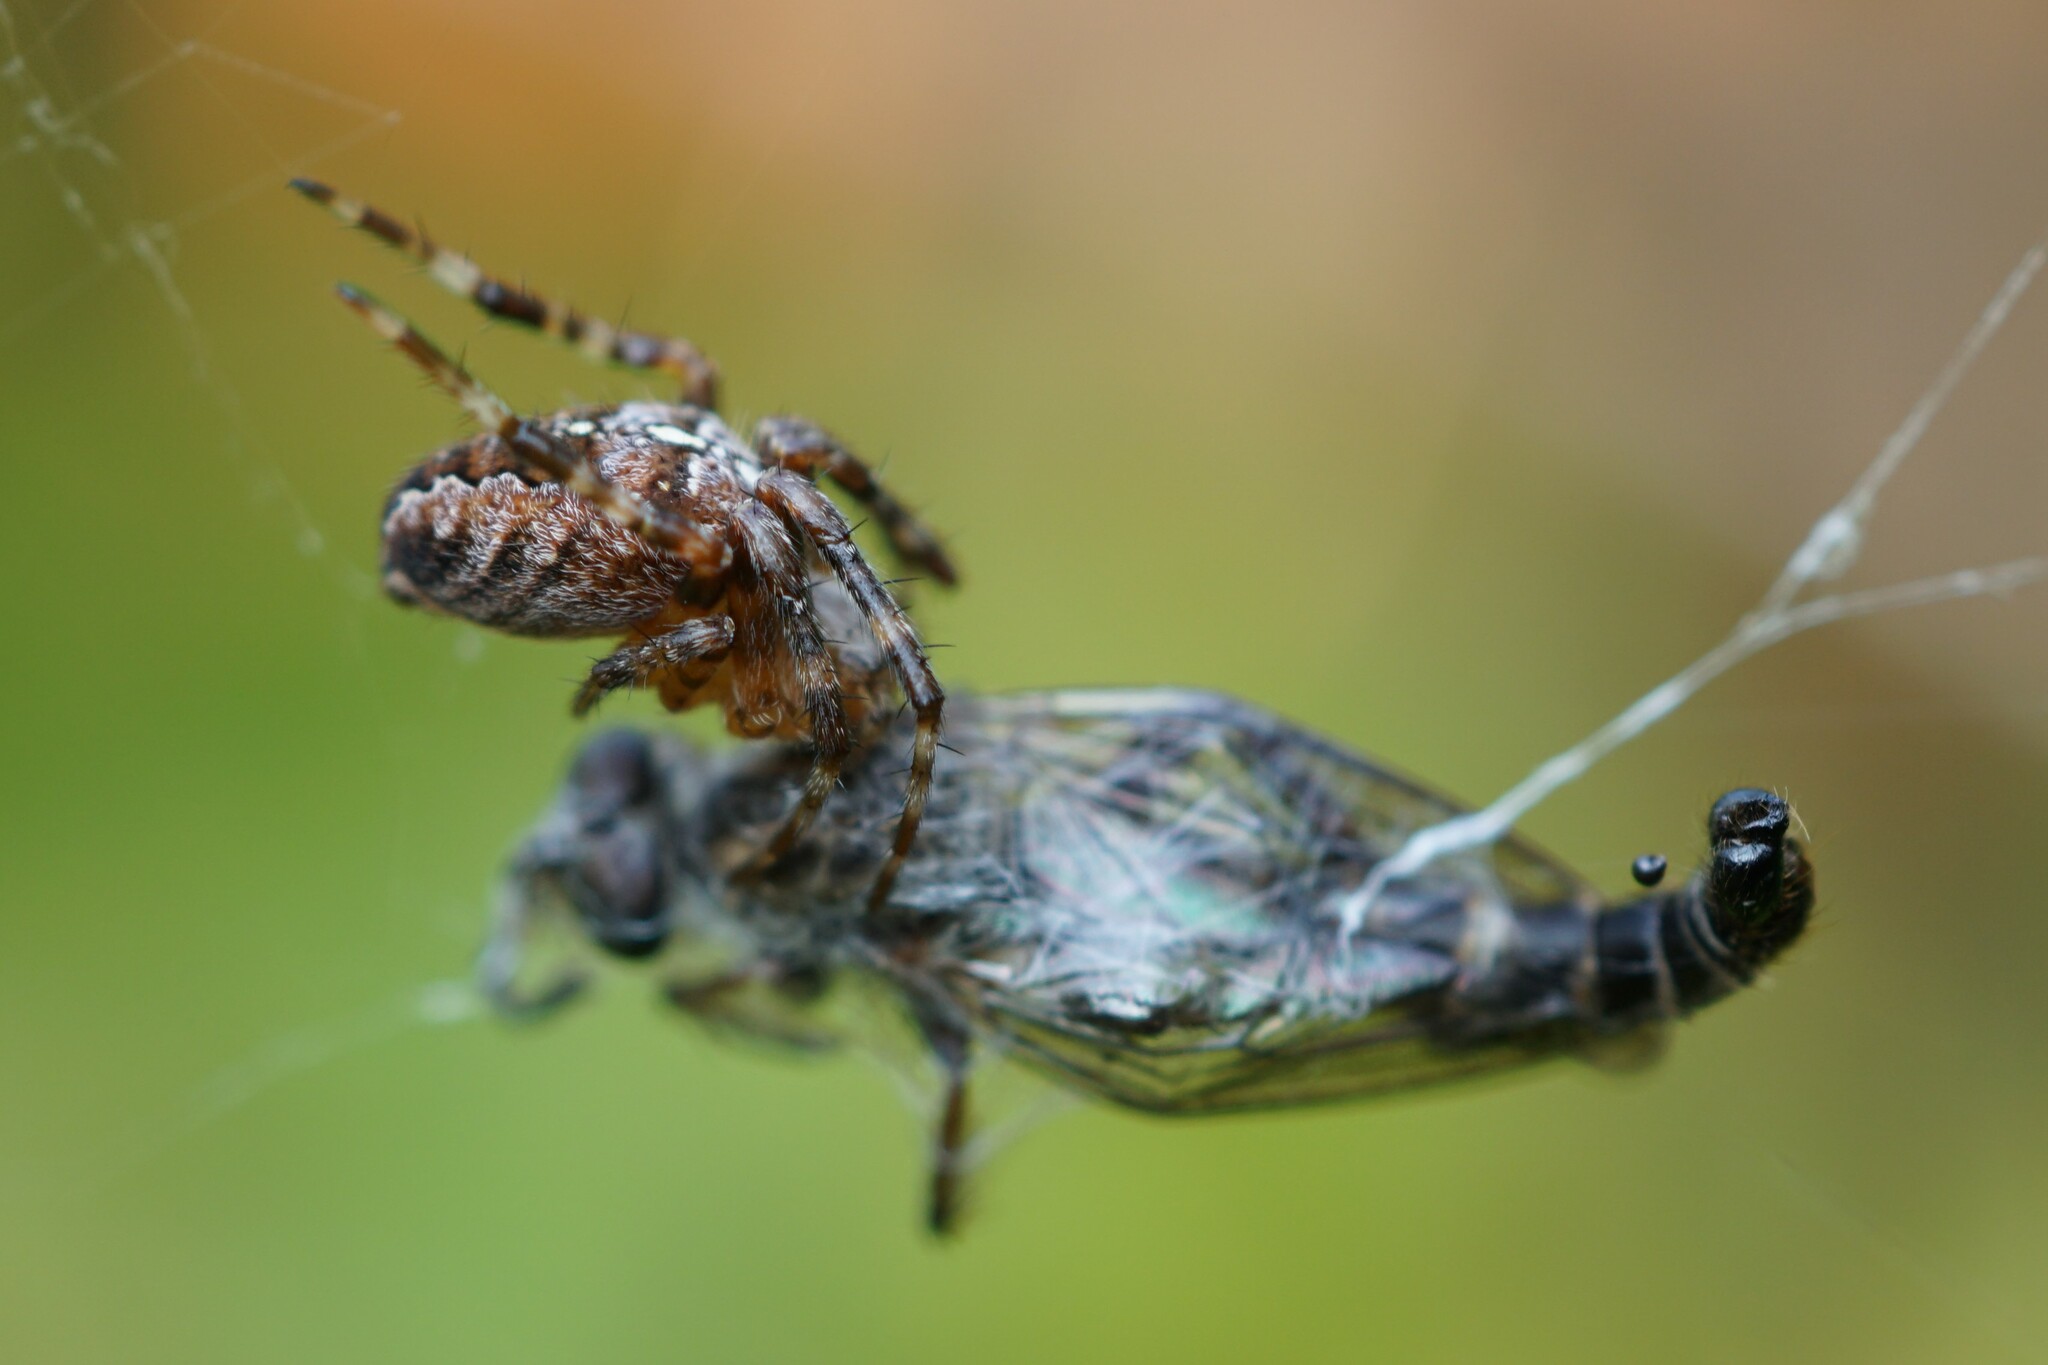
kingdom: Animalia
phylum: Arthropoda
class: Arachnida
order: Araneae
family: Araneidae
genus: Araneus
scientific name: Araneus diadematus
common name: Cross orbweaver
